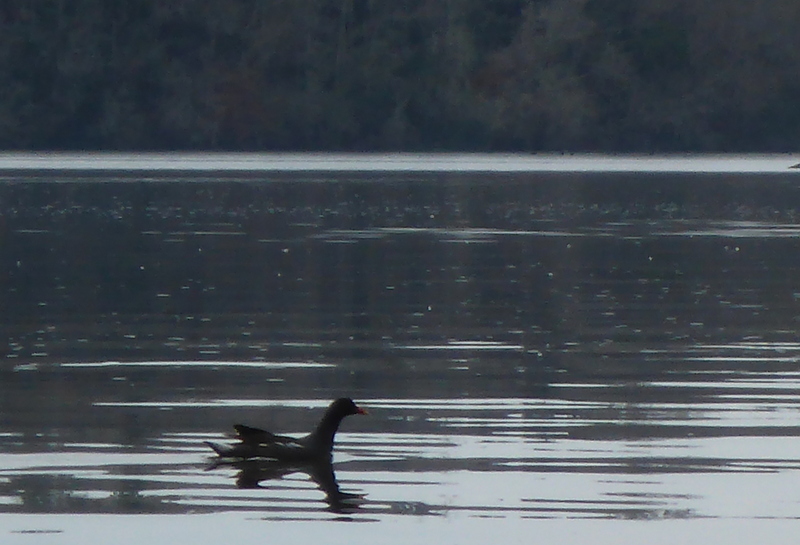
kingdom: Animalia
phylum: Chordata
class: Aves
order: Gruiformes
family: Rallidae
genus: Gallinula
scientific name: Gallinula chloropus
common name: Common moorhen
